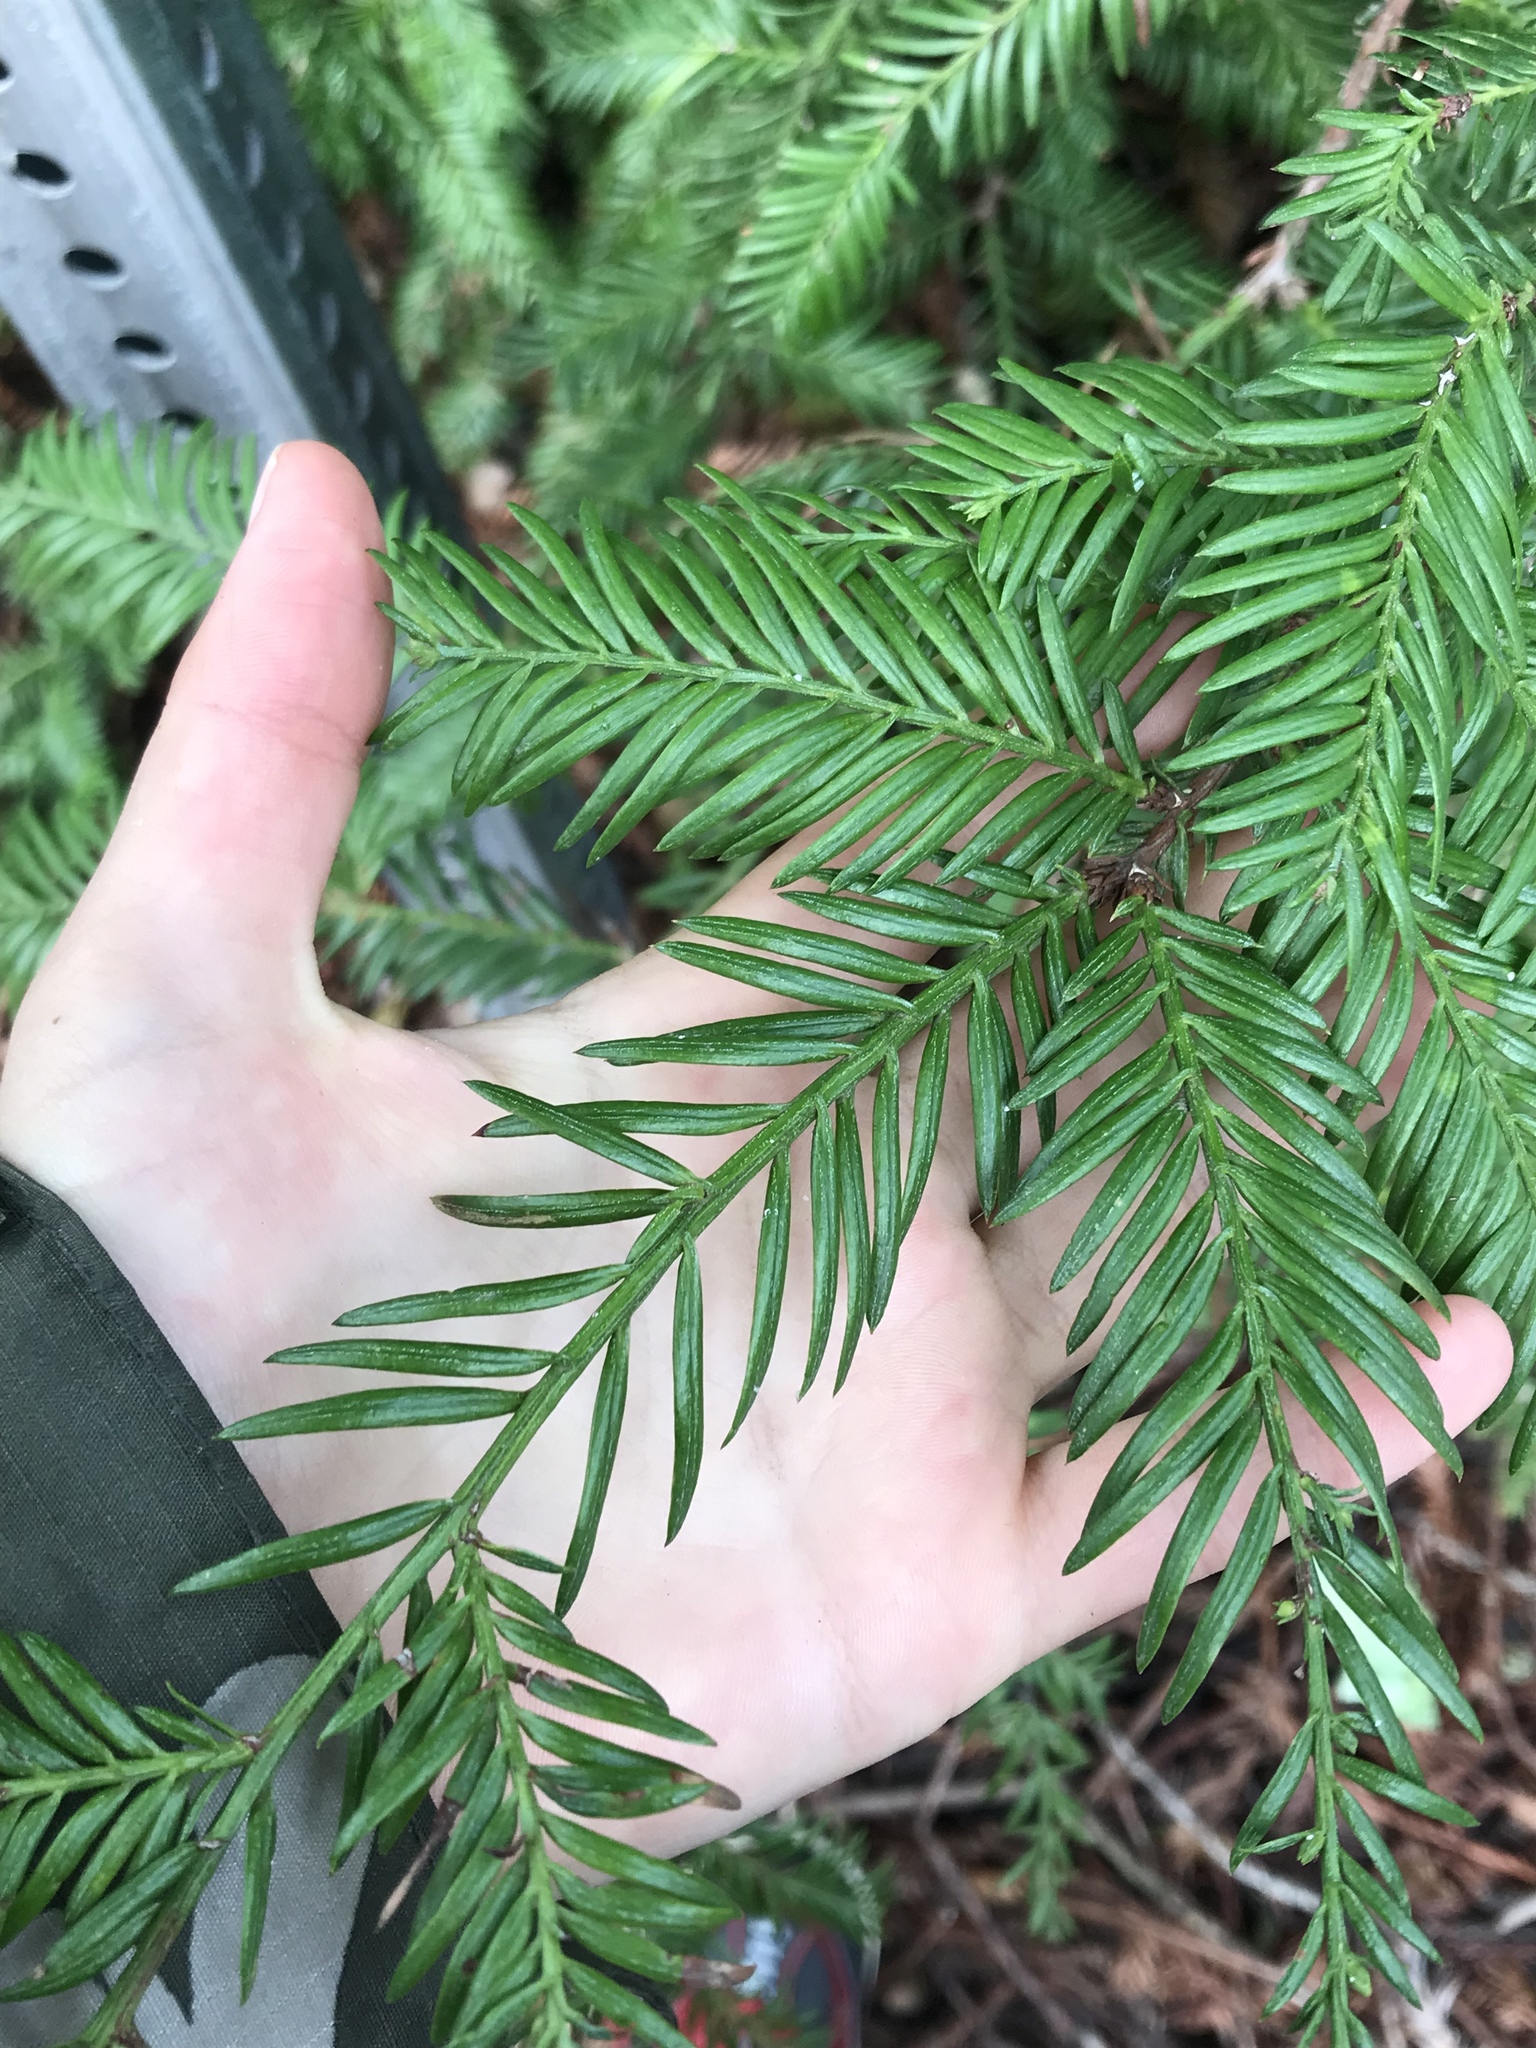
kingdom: Plantae
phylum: Tracheophyta
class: Pinopsida
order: Pinales
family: Cupressaceae
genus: Sequoia
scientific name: Sequoia sempervirens
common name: Coast redwood
